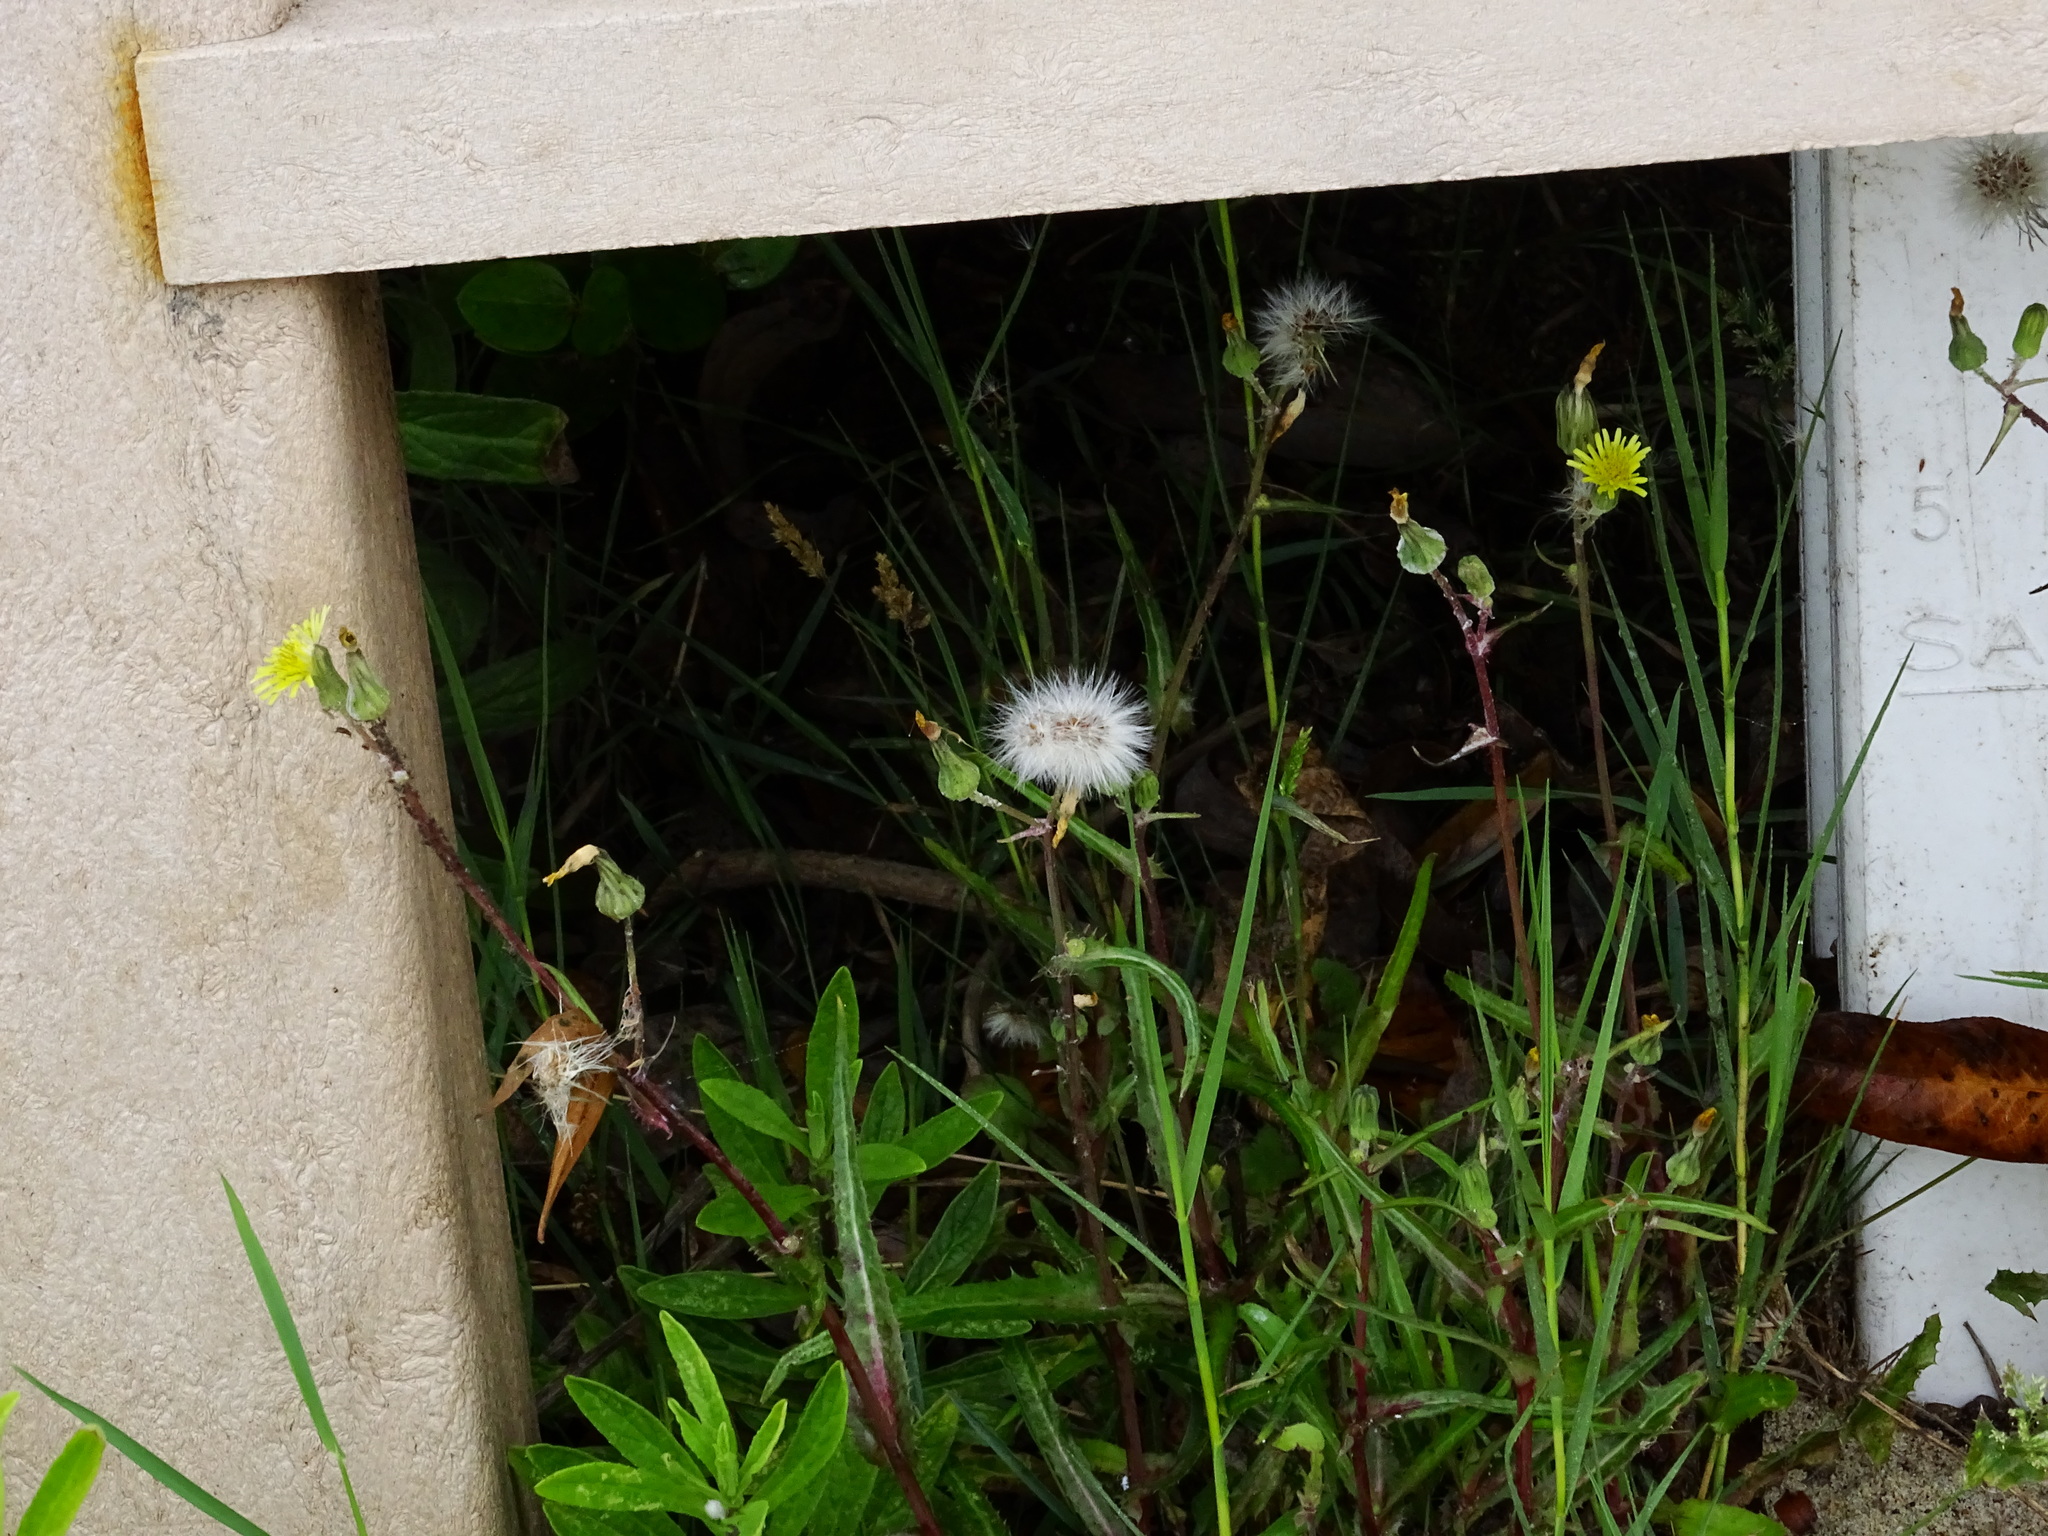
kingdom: Plantae
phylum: Tracheophyta
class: Magnoliopsida
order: Asterales
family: Asteraceae
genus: Sonchus
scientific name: Sonchus oleraceus
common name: Common sowthistle
